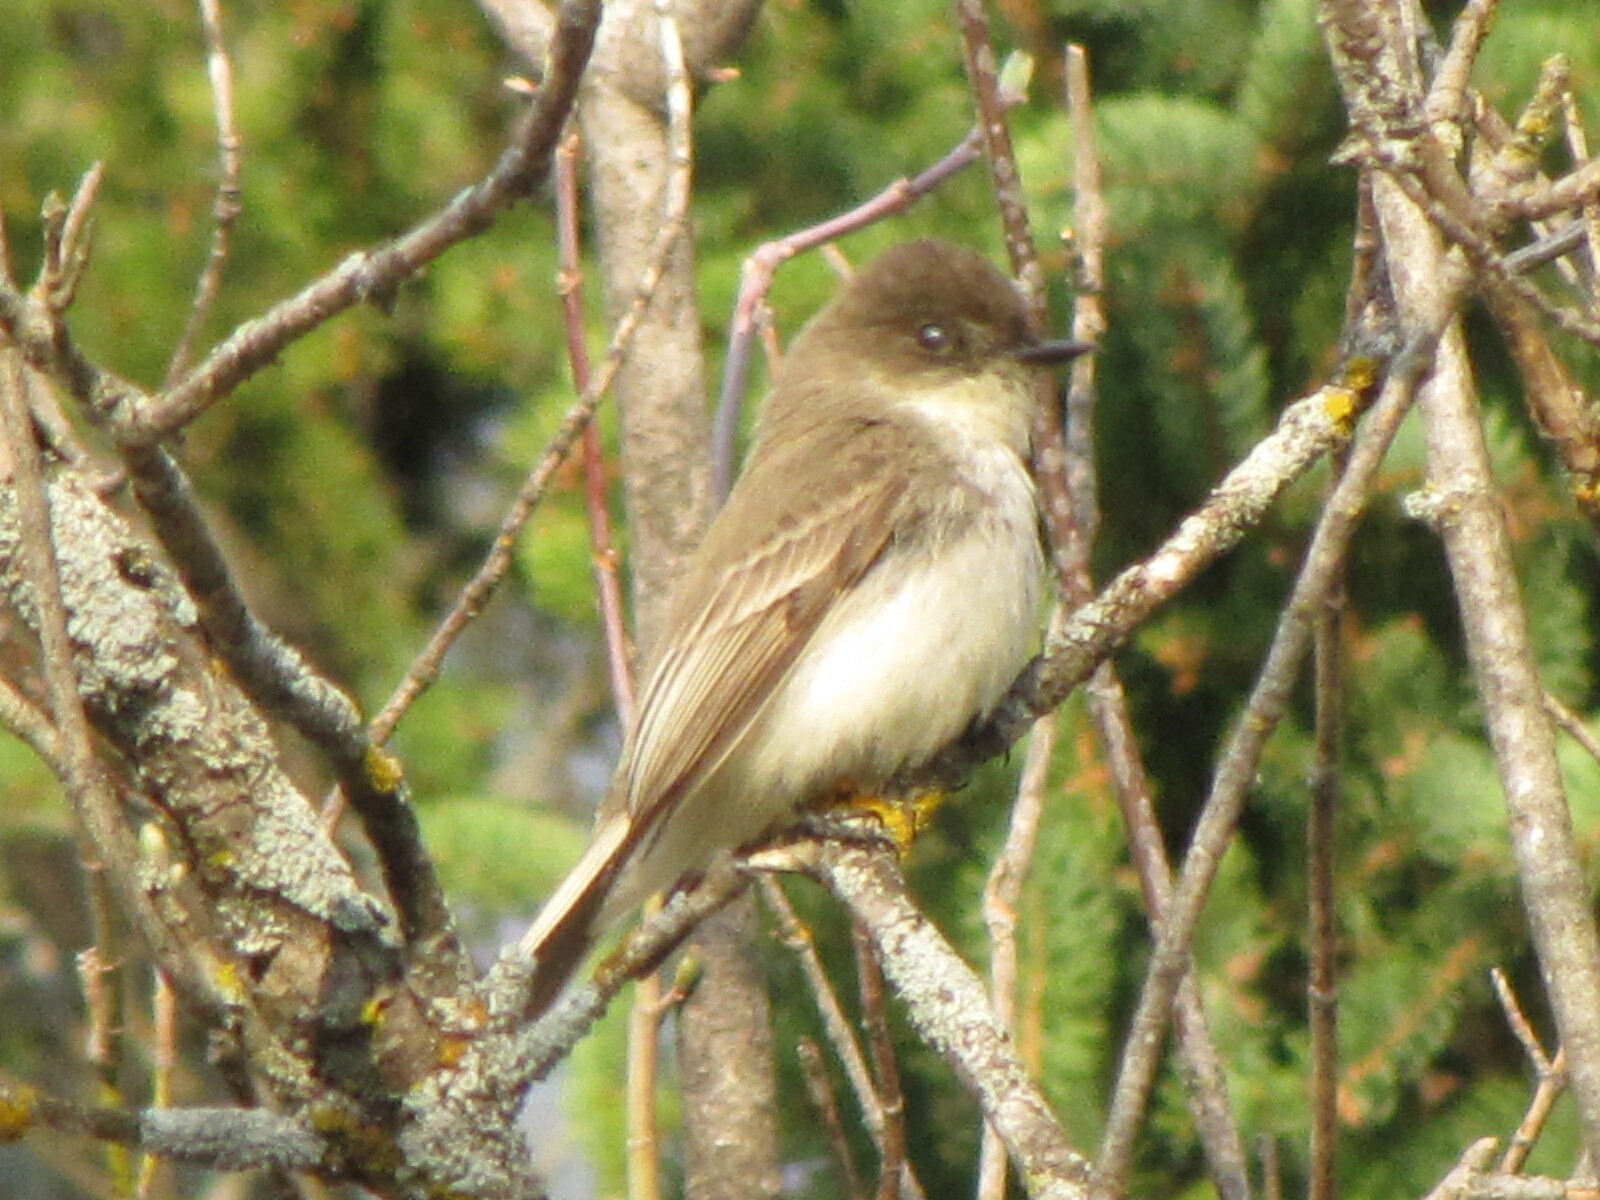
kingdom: Animalia
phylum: Chordata
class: Aves
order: Passeriformes
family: Tyrannidae
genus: Sayornis
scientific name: Sayornis phoebe
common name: Eastern phoebe
